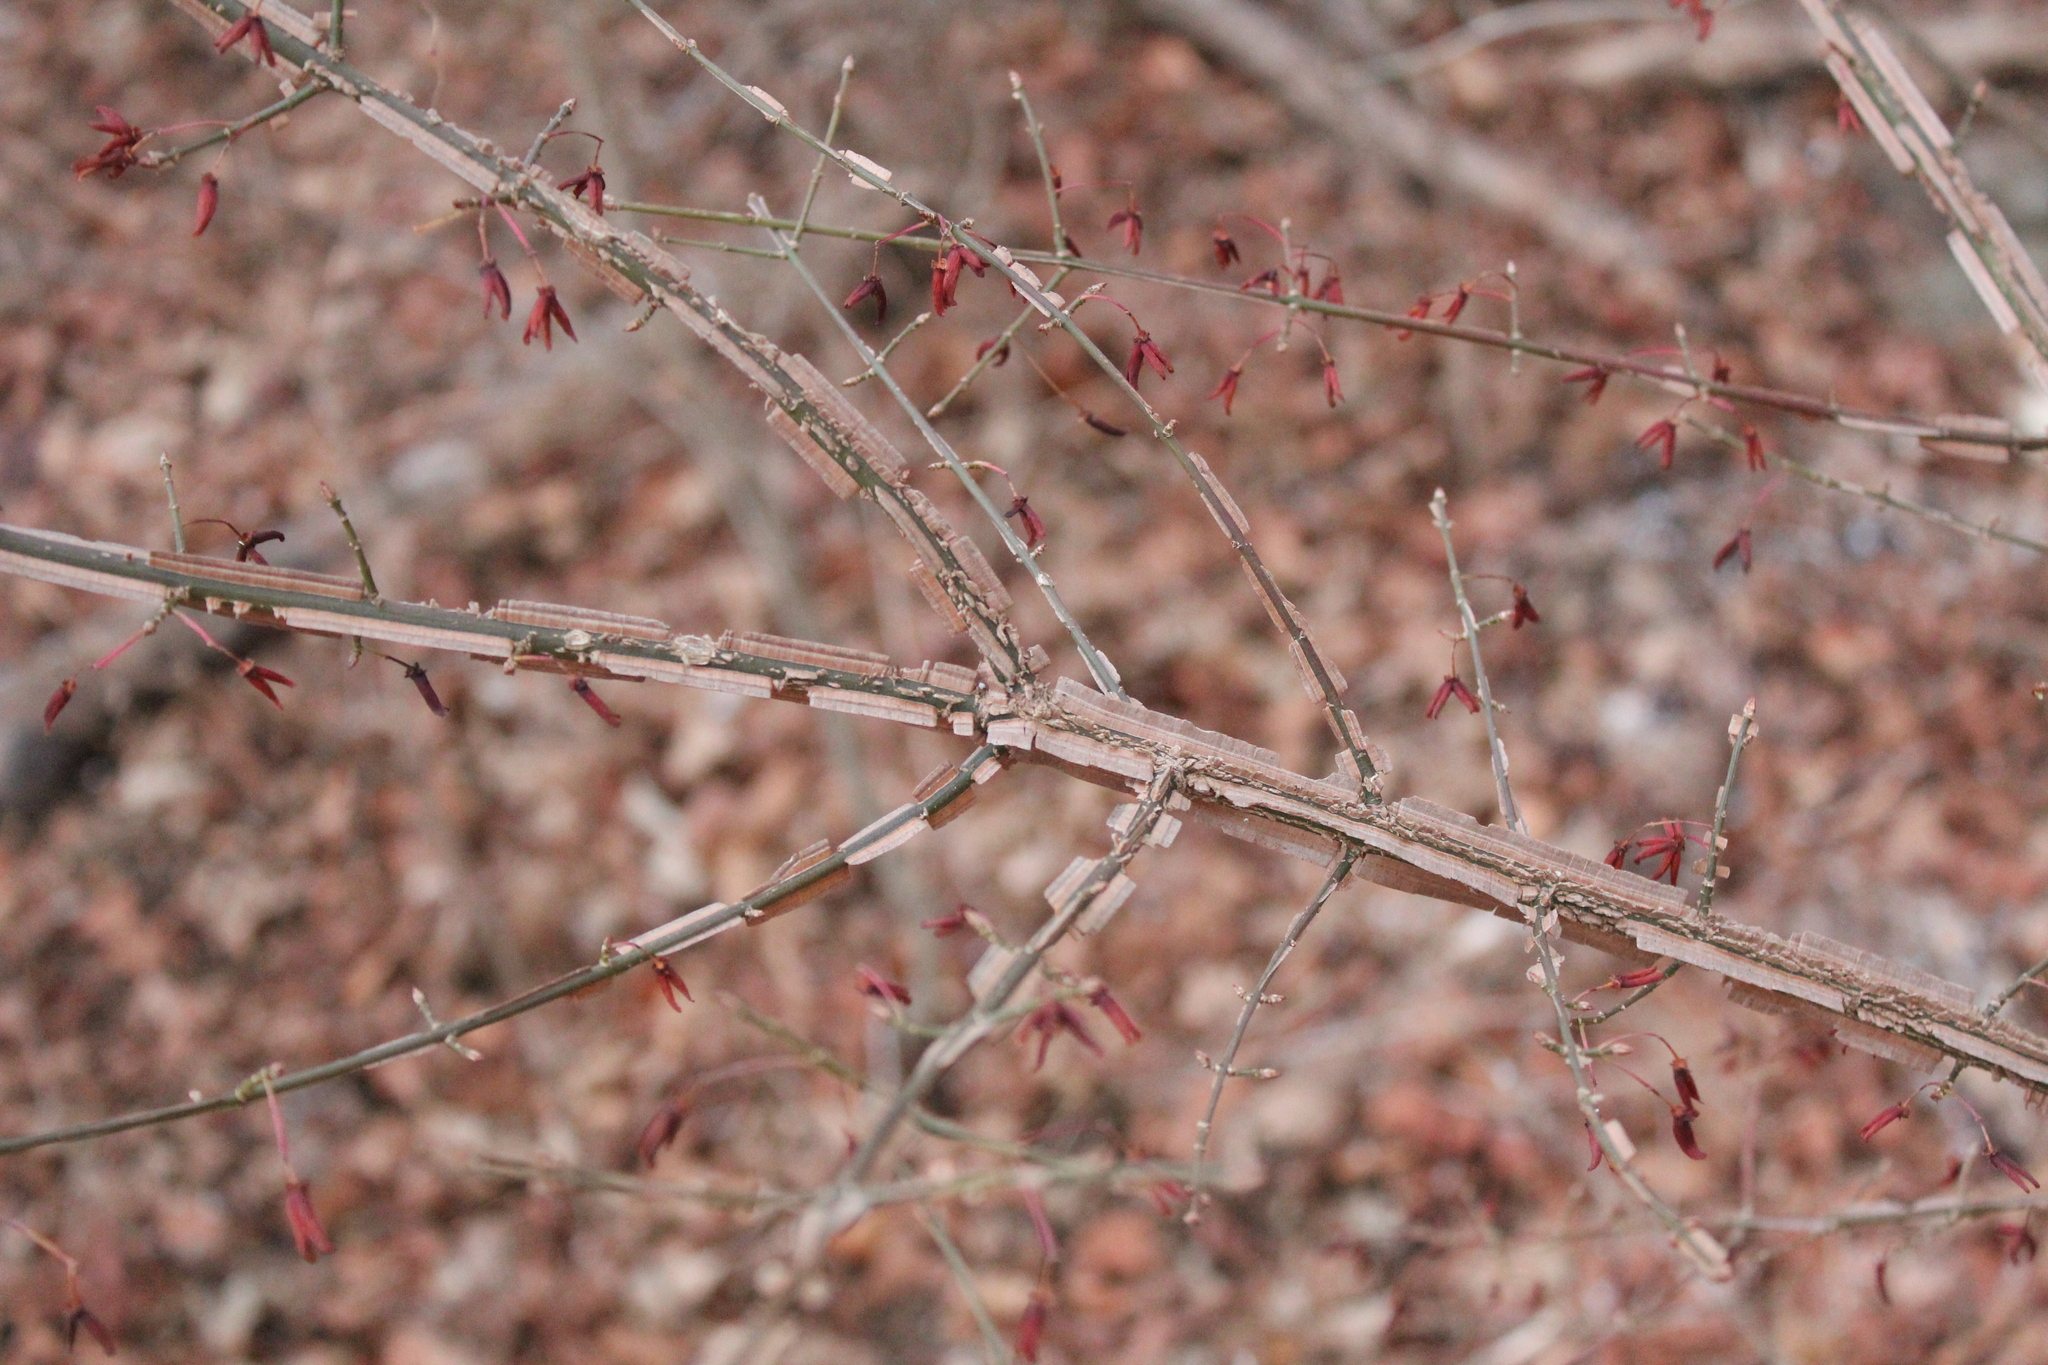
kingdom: Plantae
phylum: Tracheophyta
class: Magnoliopsida
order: Celastrales
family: Celastraceae
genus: Euonymus
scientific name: Euonymus alatus
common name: Winged euonymus
